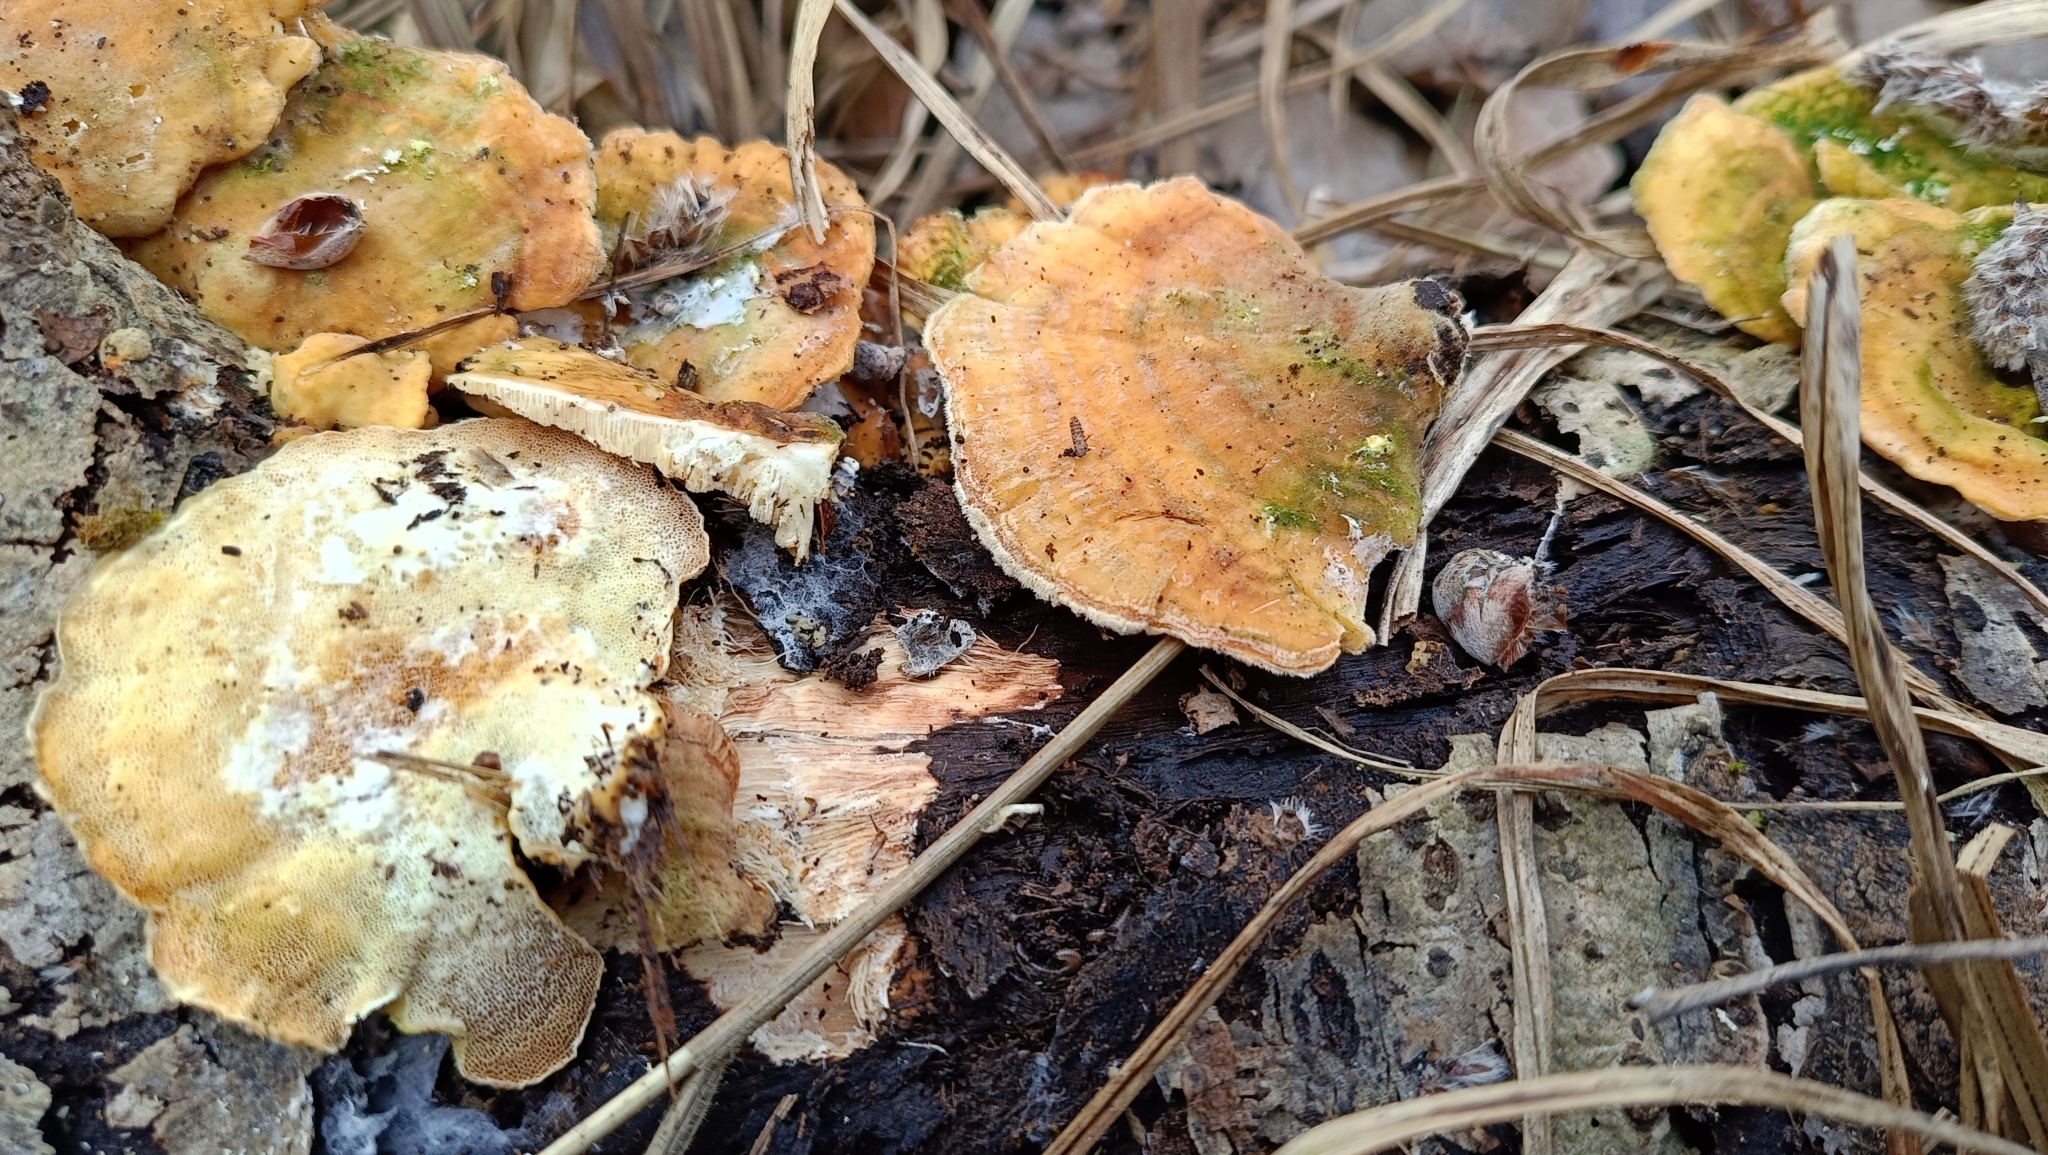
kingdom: Fungi
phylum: Basidiomycota
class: Agaricomycetes
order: Polyporales
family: Polyporaceae
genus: Trametes
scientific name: Trametes ochracea
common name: Ochre bracket
